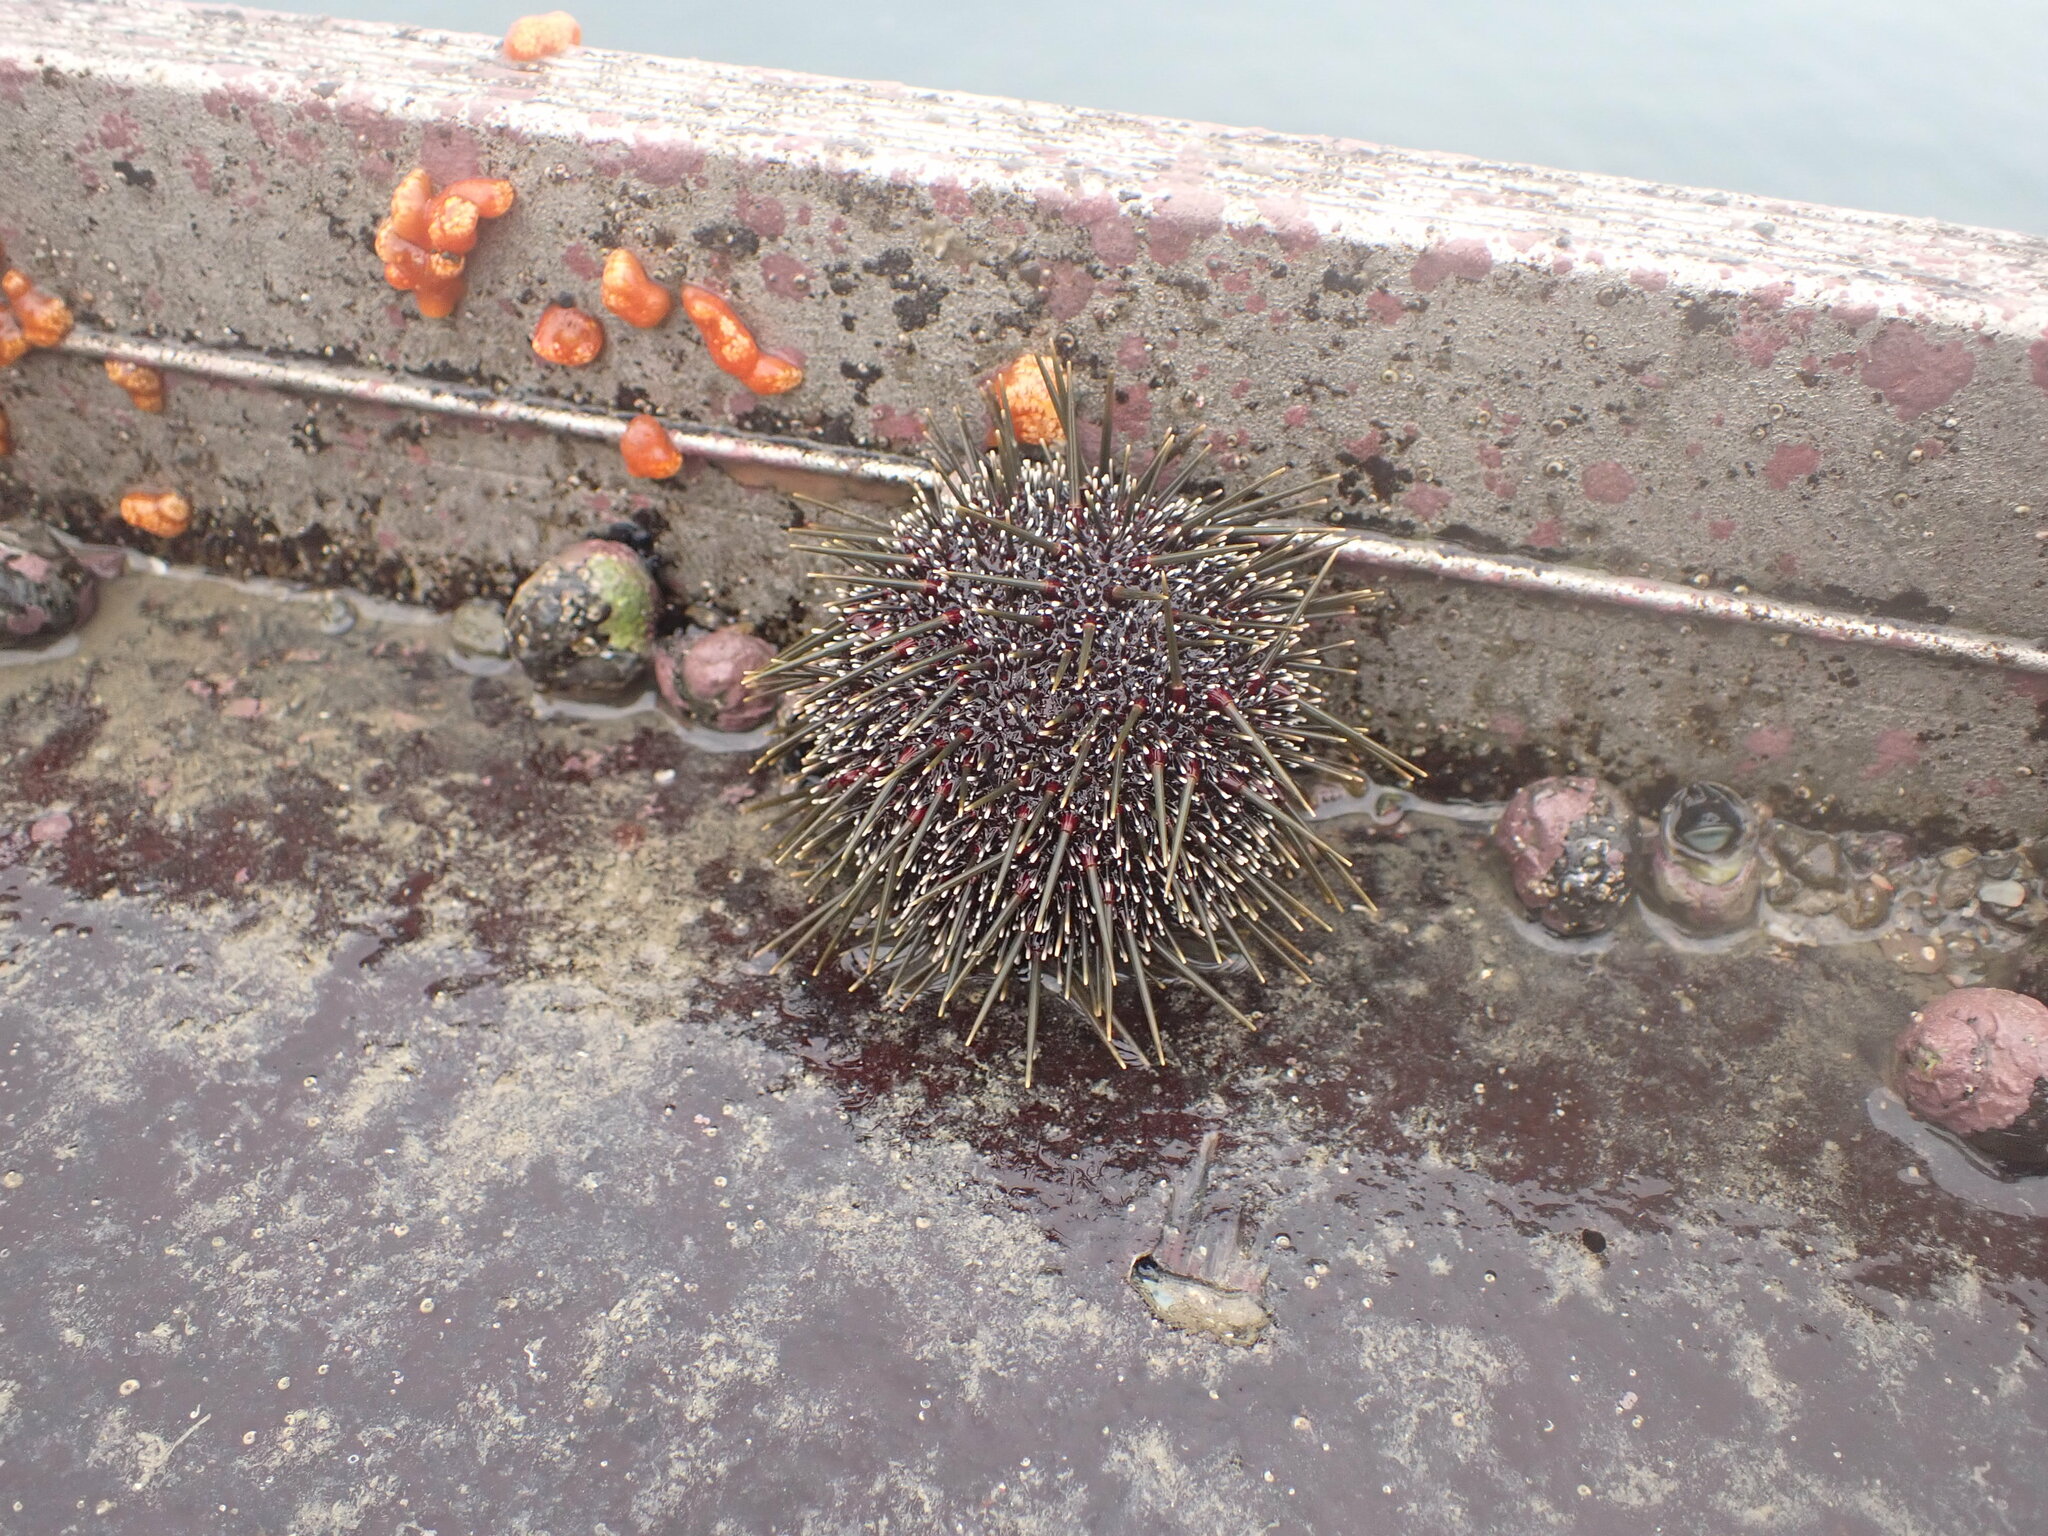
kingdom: Animalia
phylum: Echinodermata
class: Echinoidea
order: Camarodonta
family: Echinometridae
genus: Evechinus
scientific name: Evechinus chloroticus
